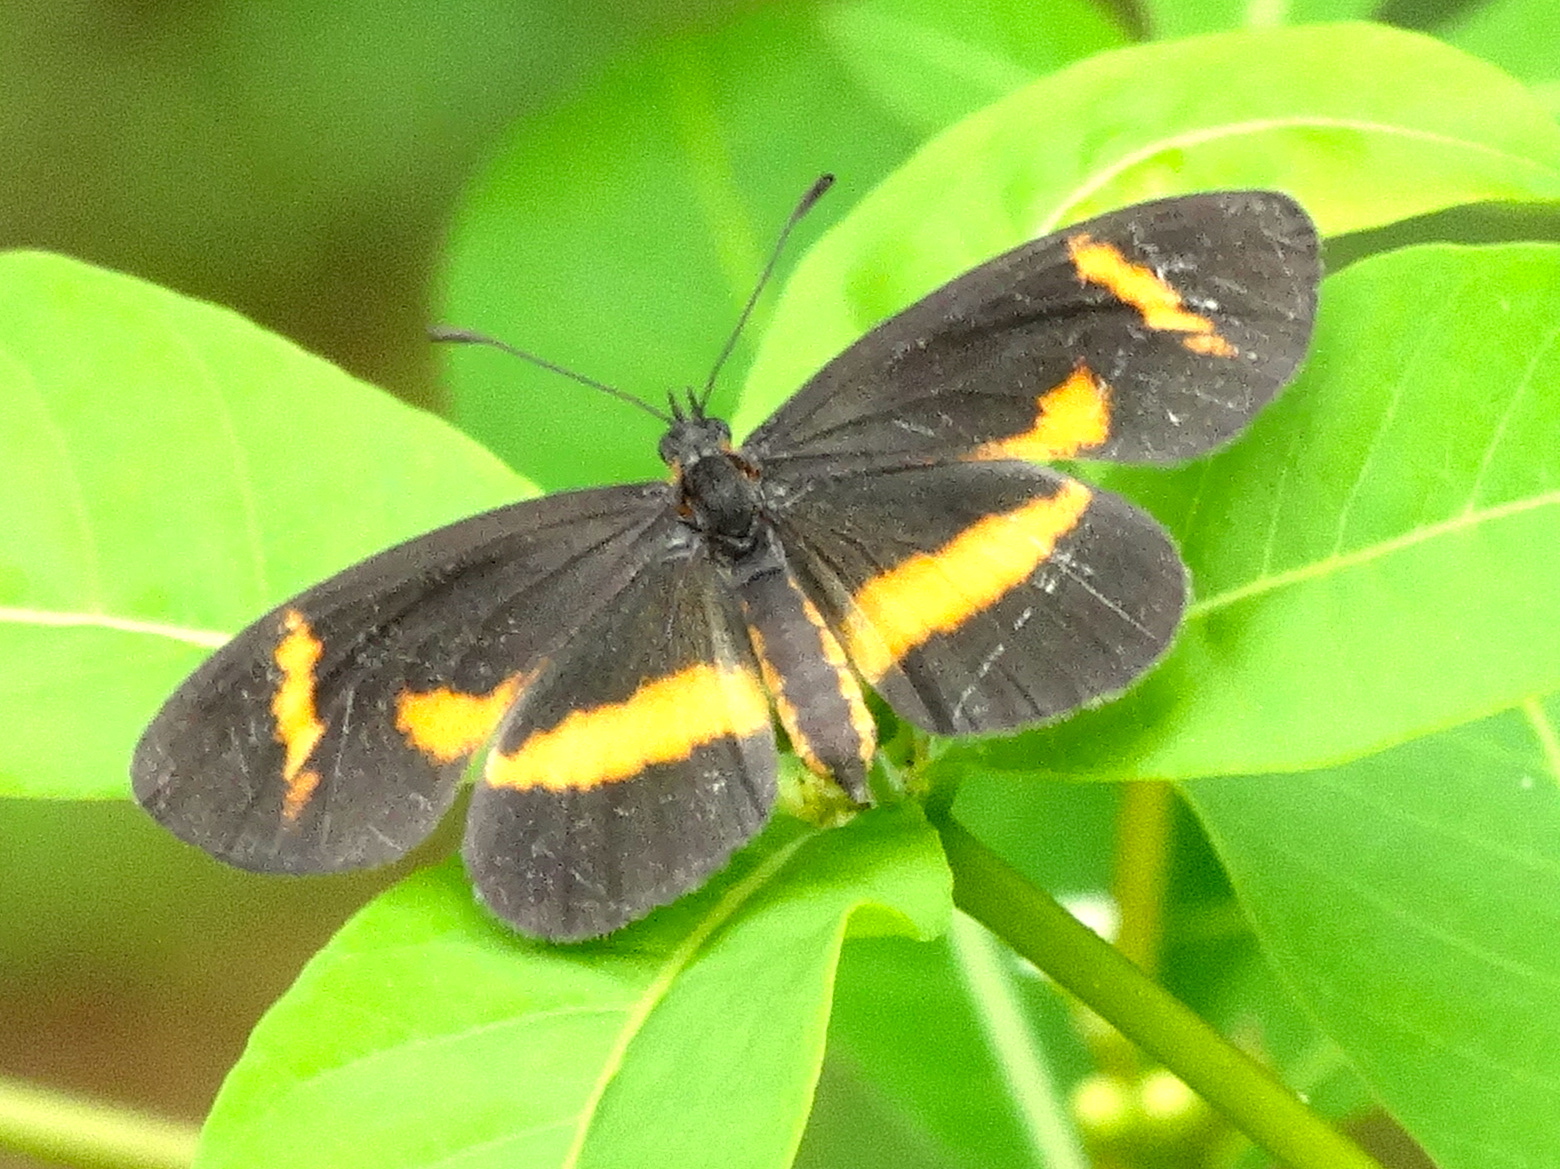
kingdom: Animalia
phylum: Arthropoda
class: Insecta
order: Lepidoptera
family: Nymphalidae
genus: Microtia
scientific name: Microtia elva
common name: Elf
